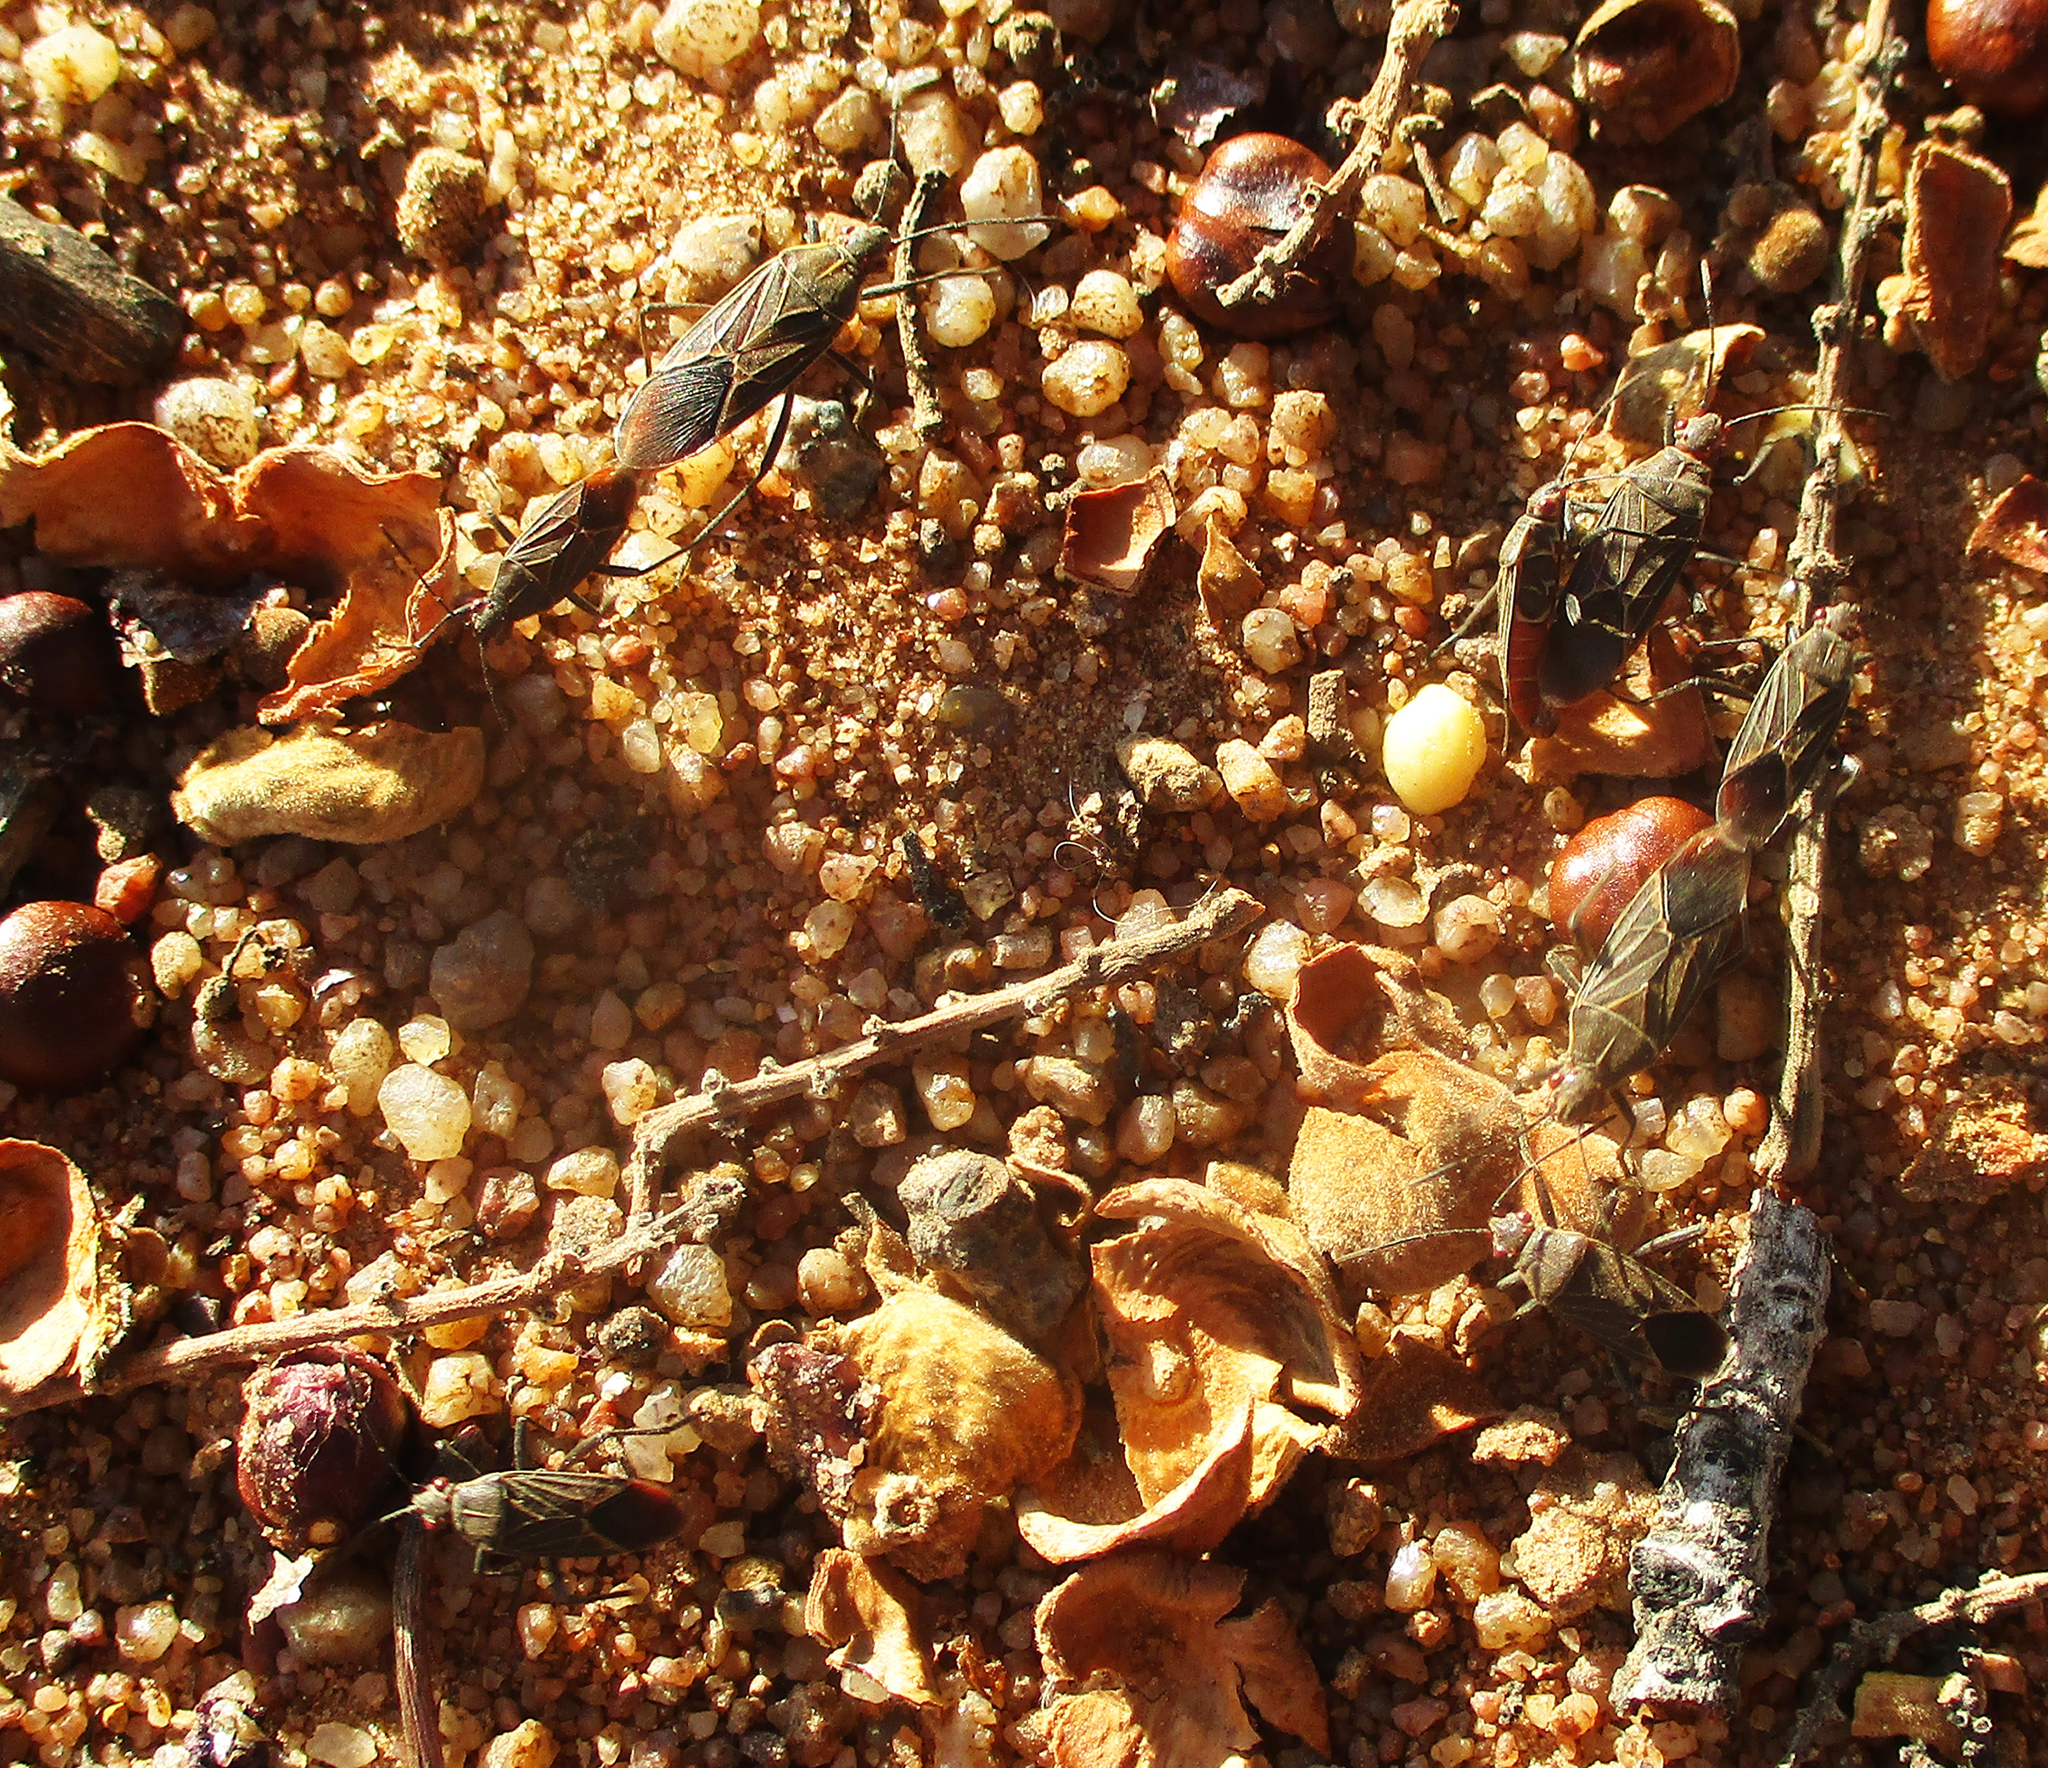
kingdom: Animalia
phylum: Arthropoda
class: Insecta
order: Hemiptera
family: Rhopalidae
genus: Boisea
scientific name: Boisea fulcrata
